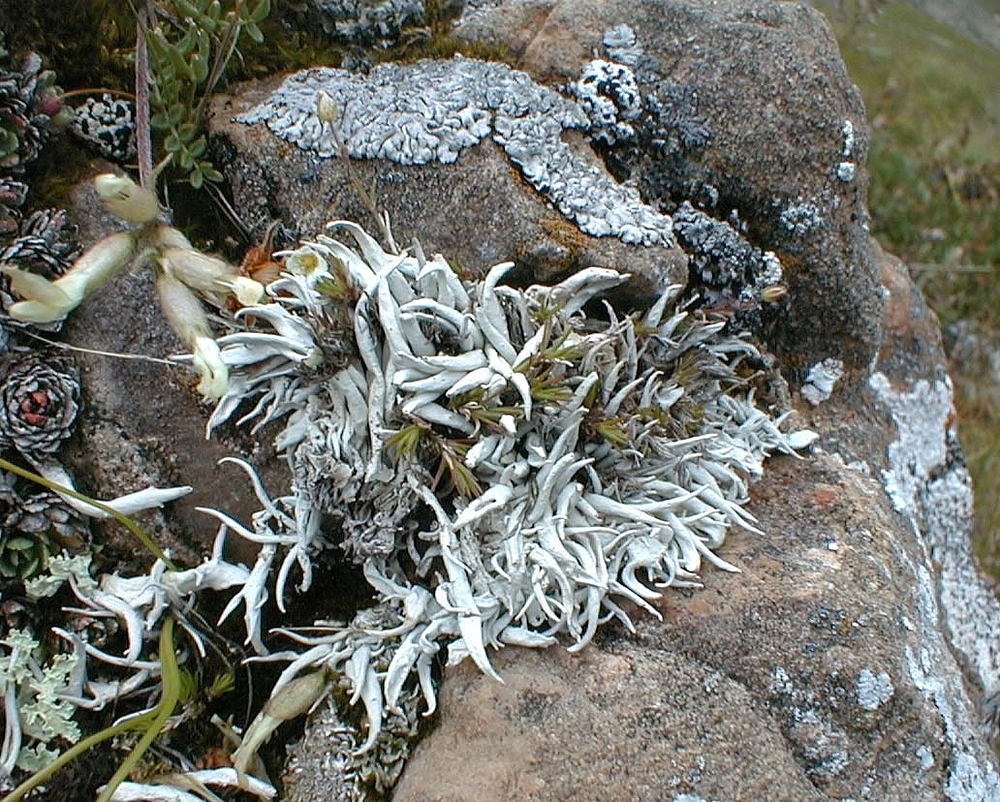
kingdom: Fungi
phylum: Ascomycota
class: Lecanoromycetes
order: Pertusariales
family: Icmadophilaceae
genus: Thamnolia
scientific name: Thamnolia vermicularis
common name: Whiteworm lichen
